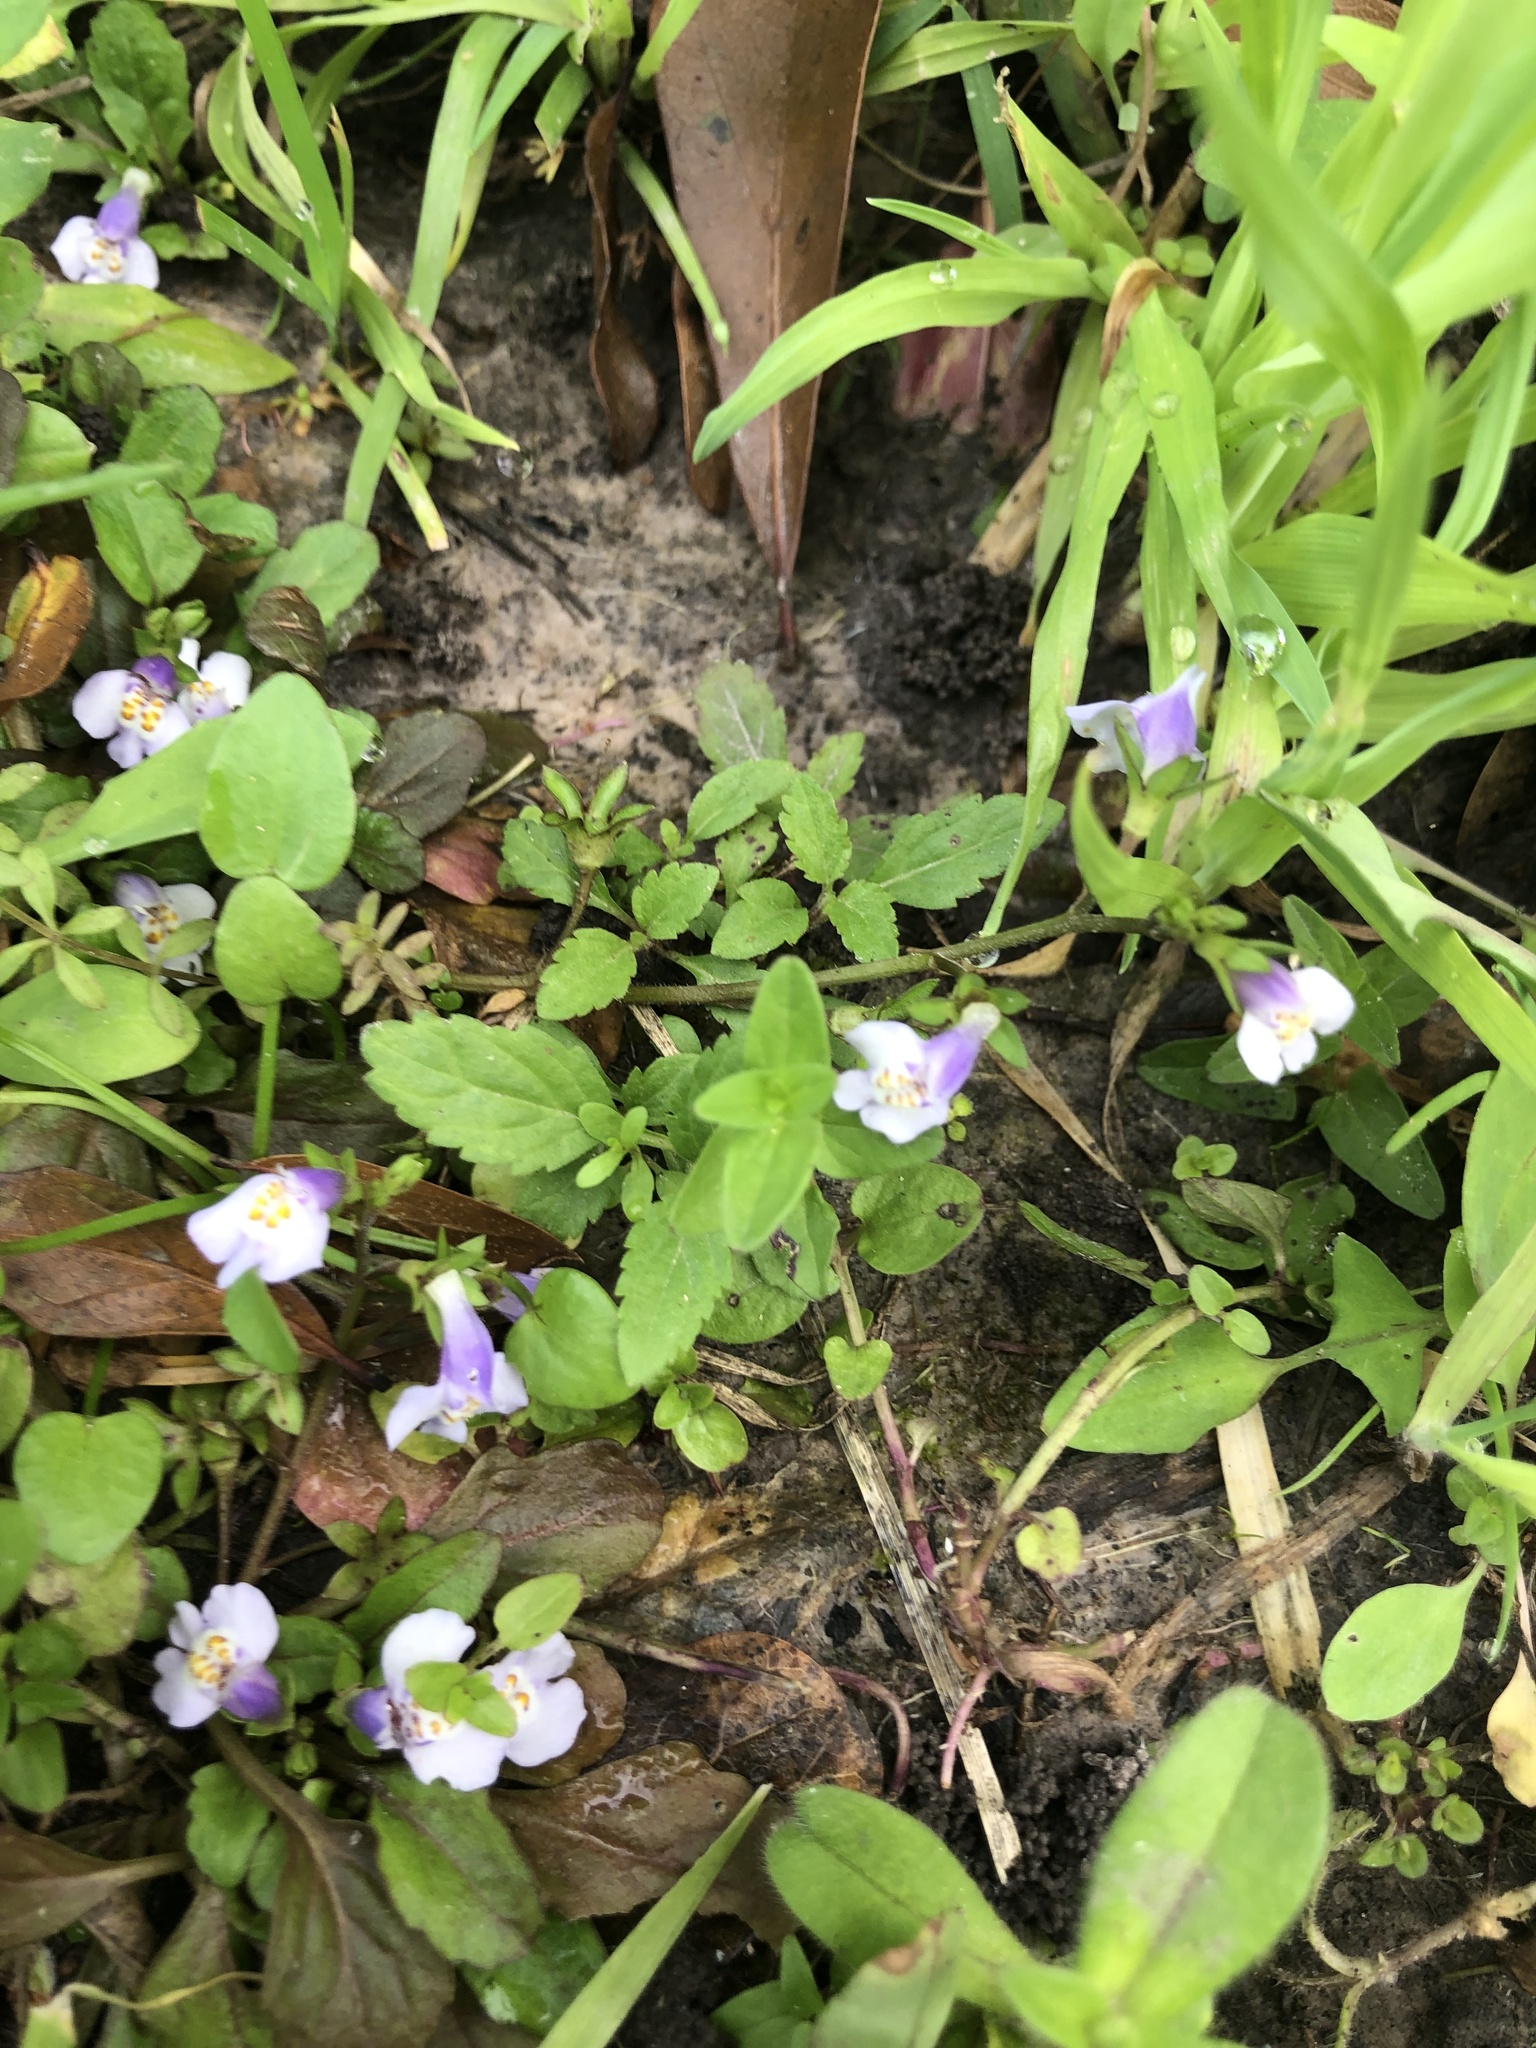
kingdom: Plantae
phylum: Tracheophyta
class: Magnoliopsida
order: Lamiales
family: Mazaceae
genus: Mazus
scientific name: Mazus pumilus
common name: Japanese mazus
